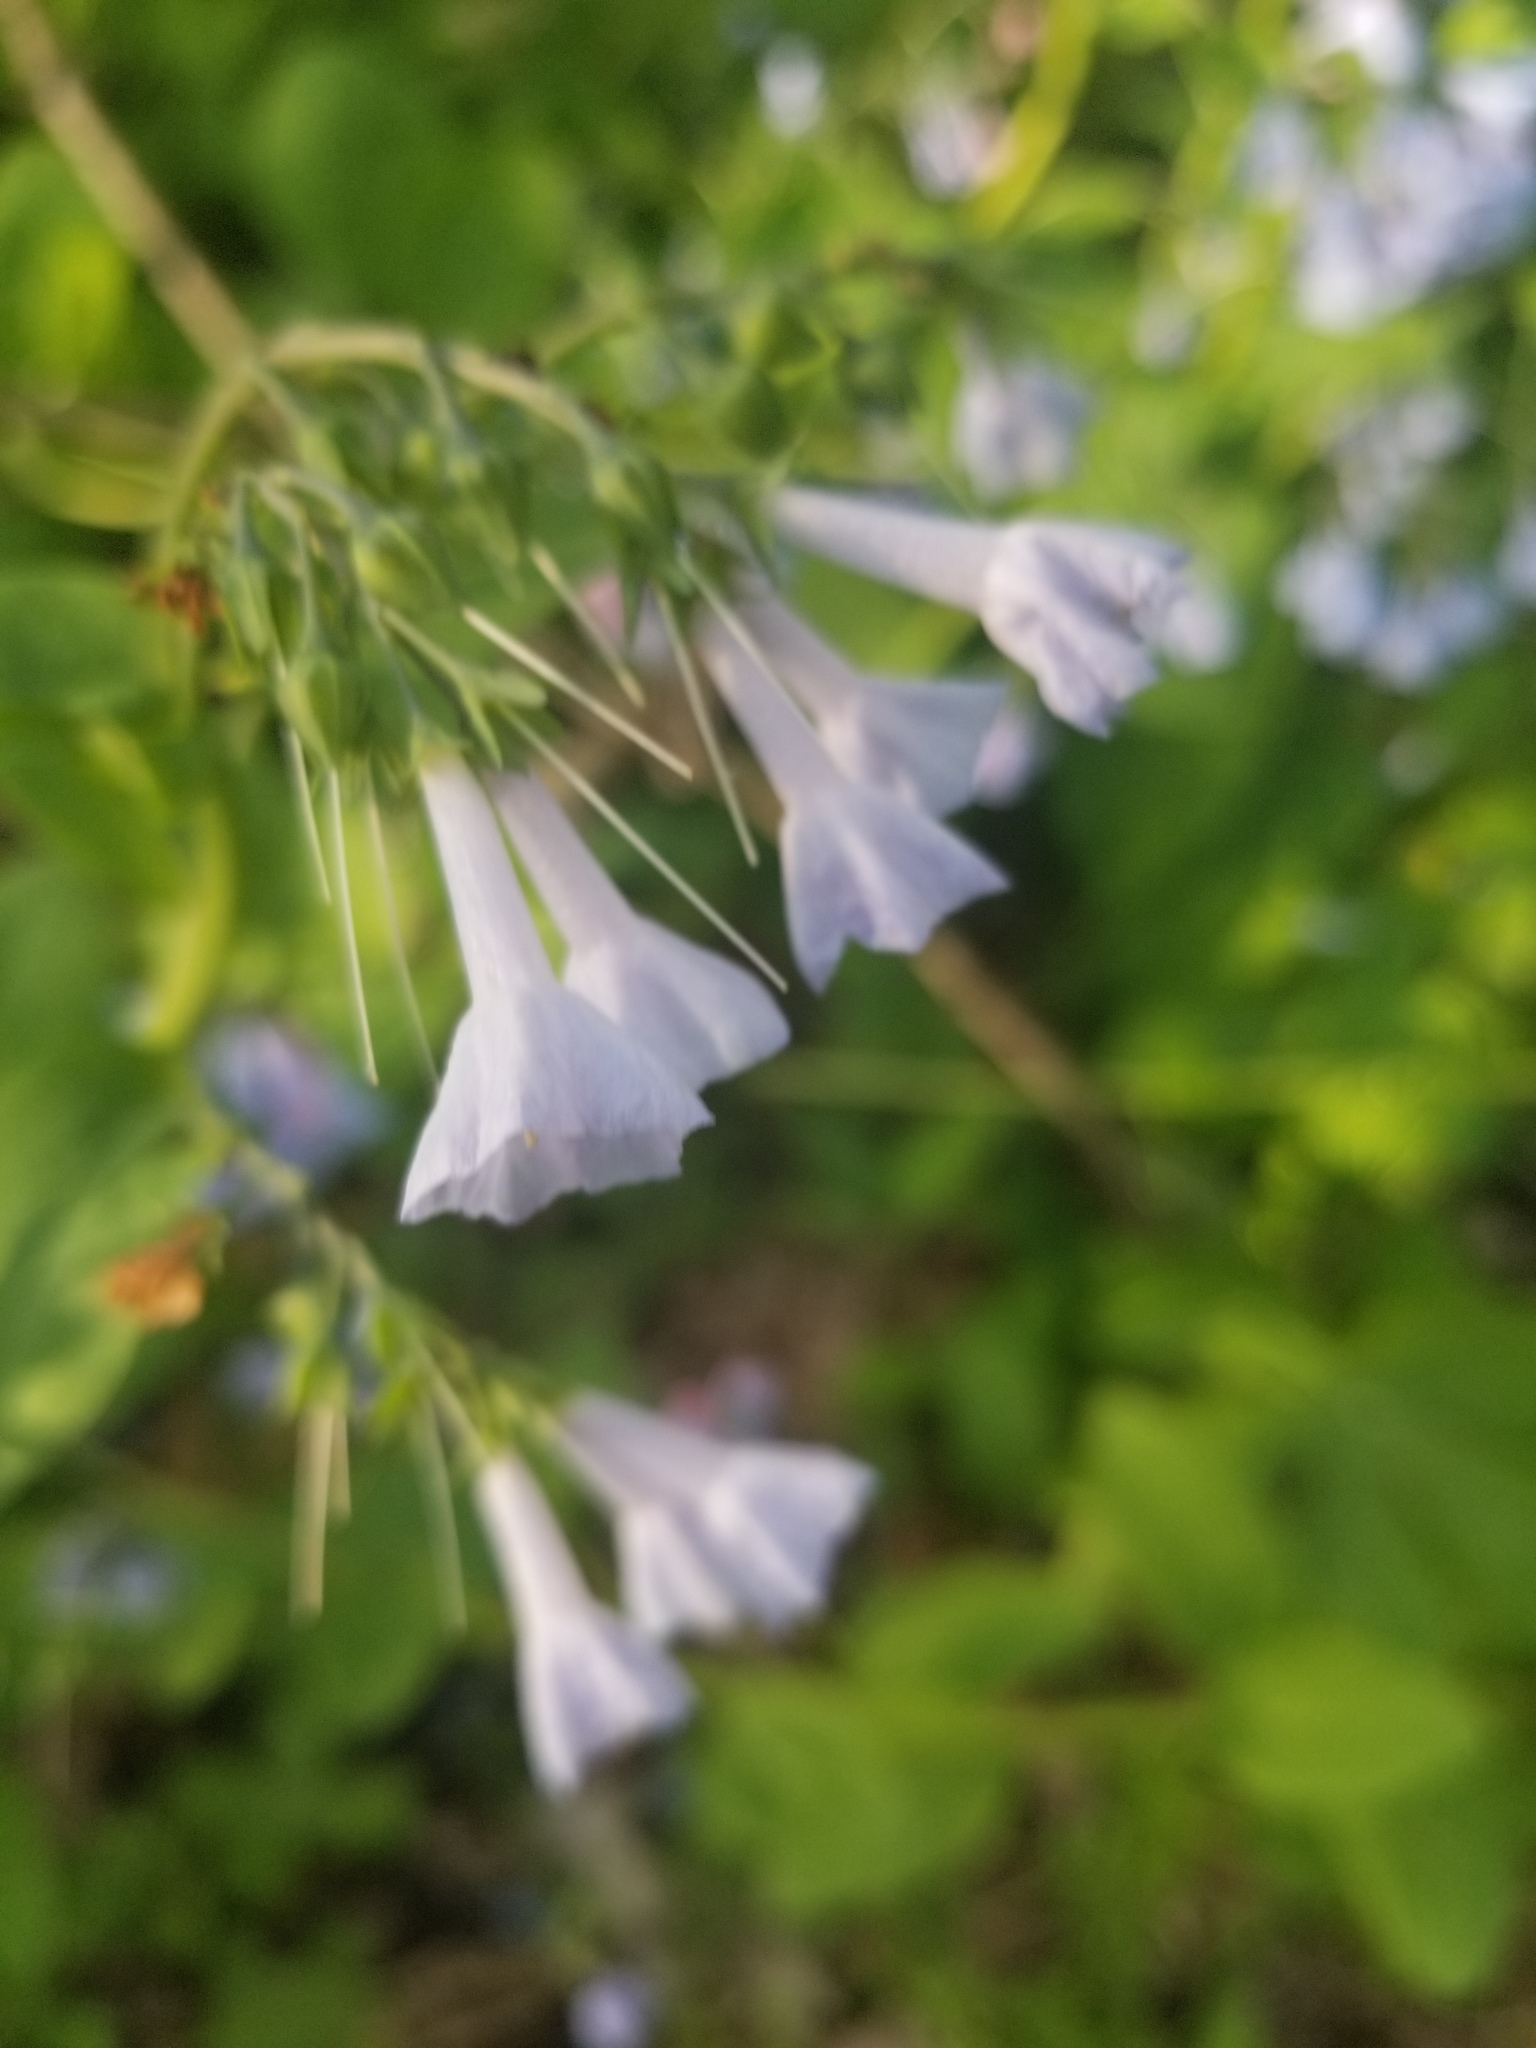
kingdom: Plantae
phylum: Tracheophyta
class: Magnoliopsida
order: Boraginales
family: Boraginaceae
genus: Mertensia
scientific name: Mertensia virginica
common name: Virginia bluebells
